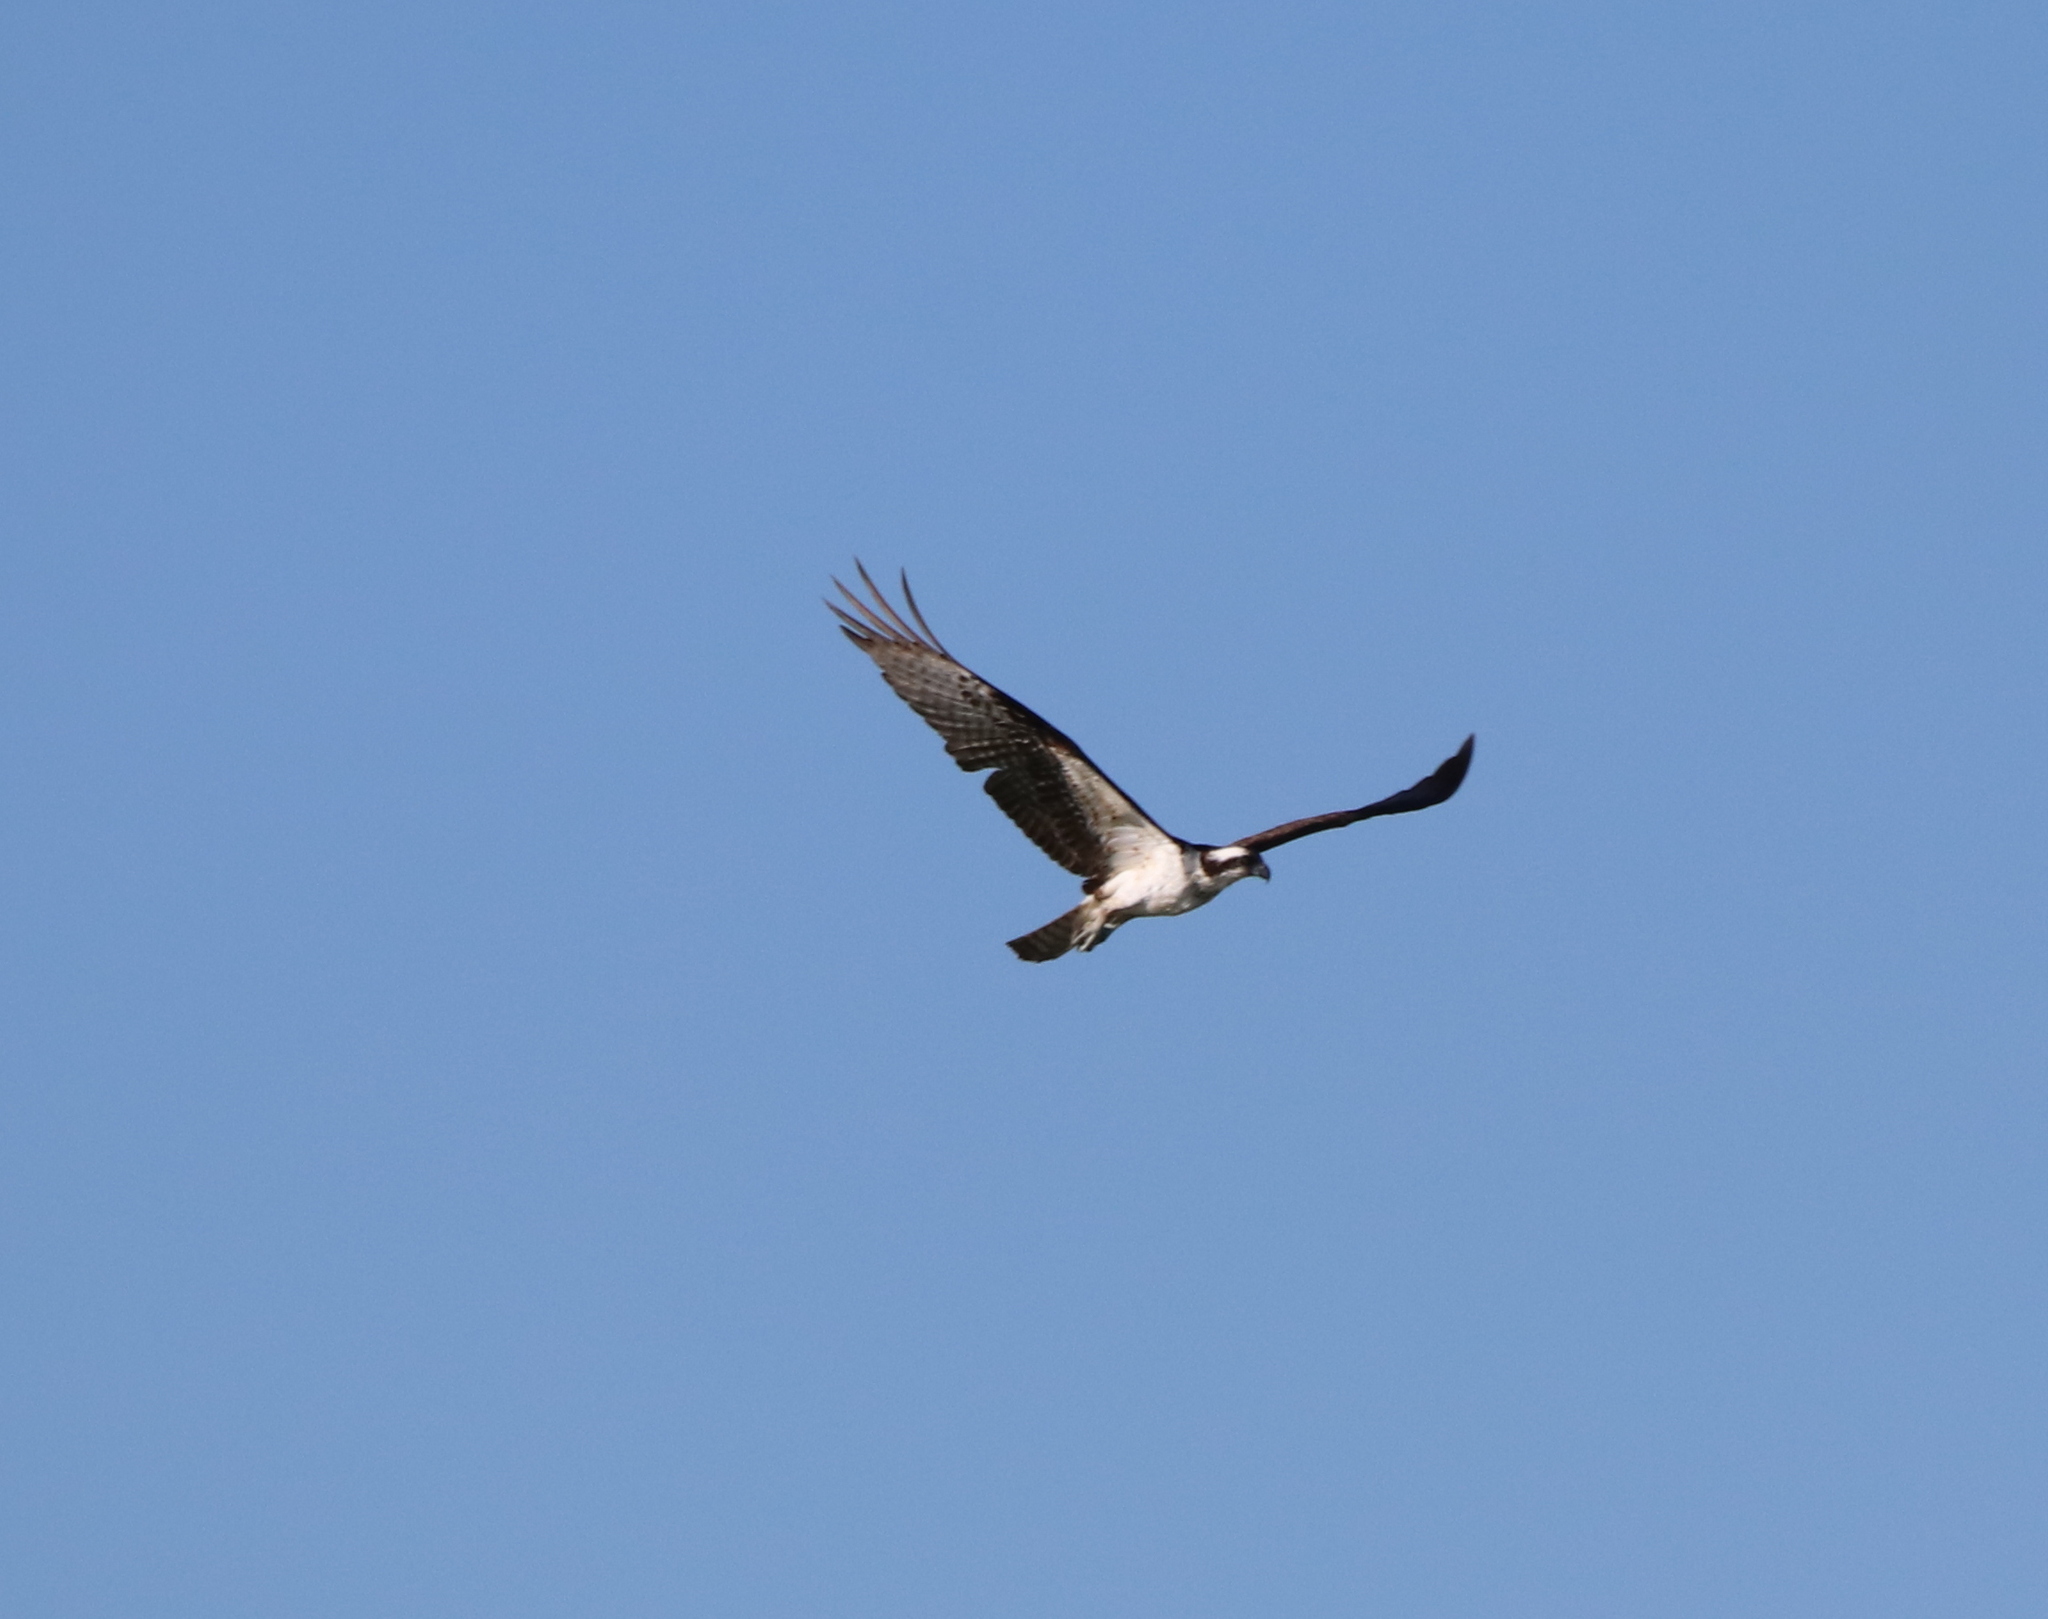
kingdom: Animalia
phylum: Chordata
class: Aves
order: Accipitriformes
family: Pandionidae
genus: Pandion
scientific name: Pandion haliaetus
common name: Osprey
